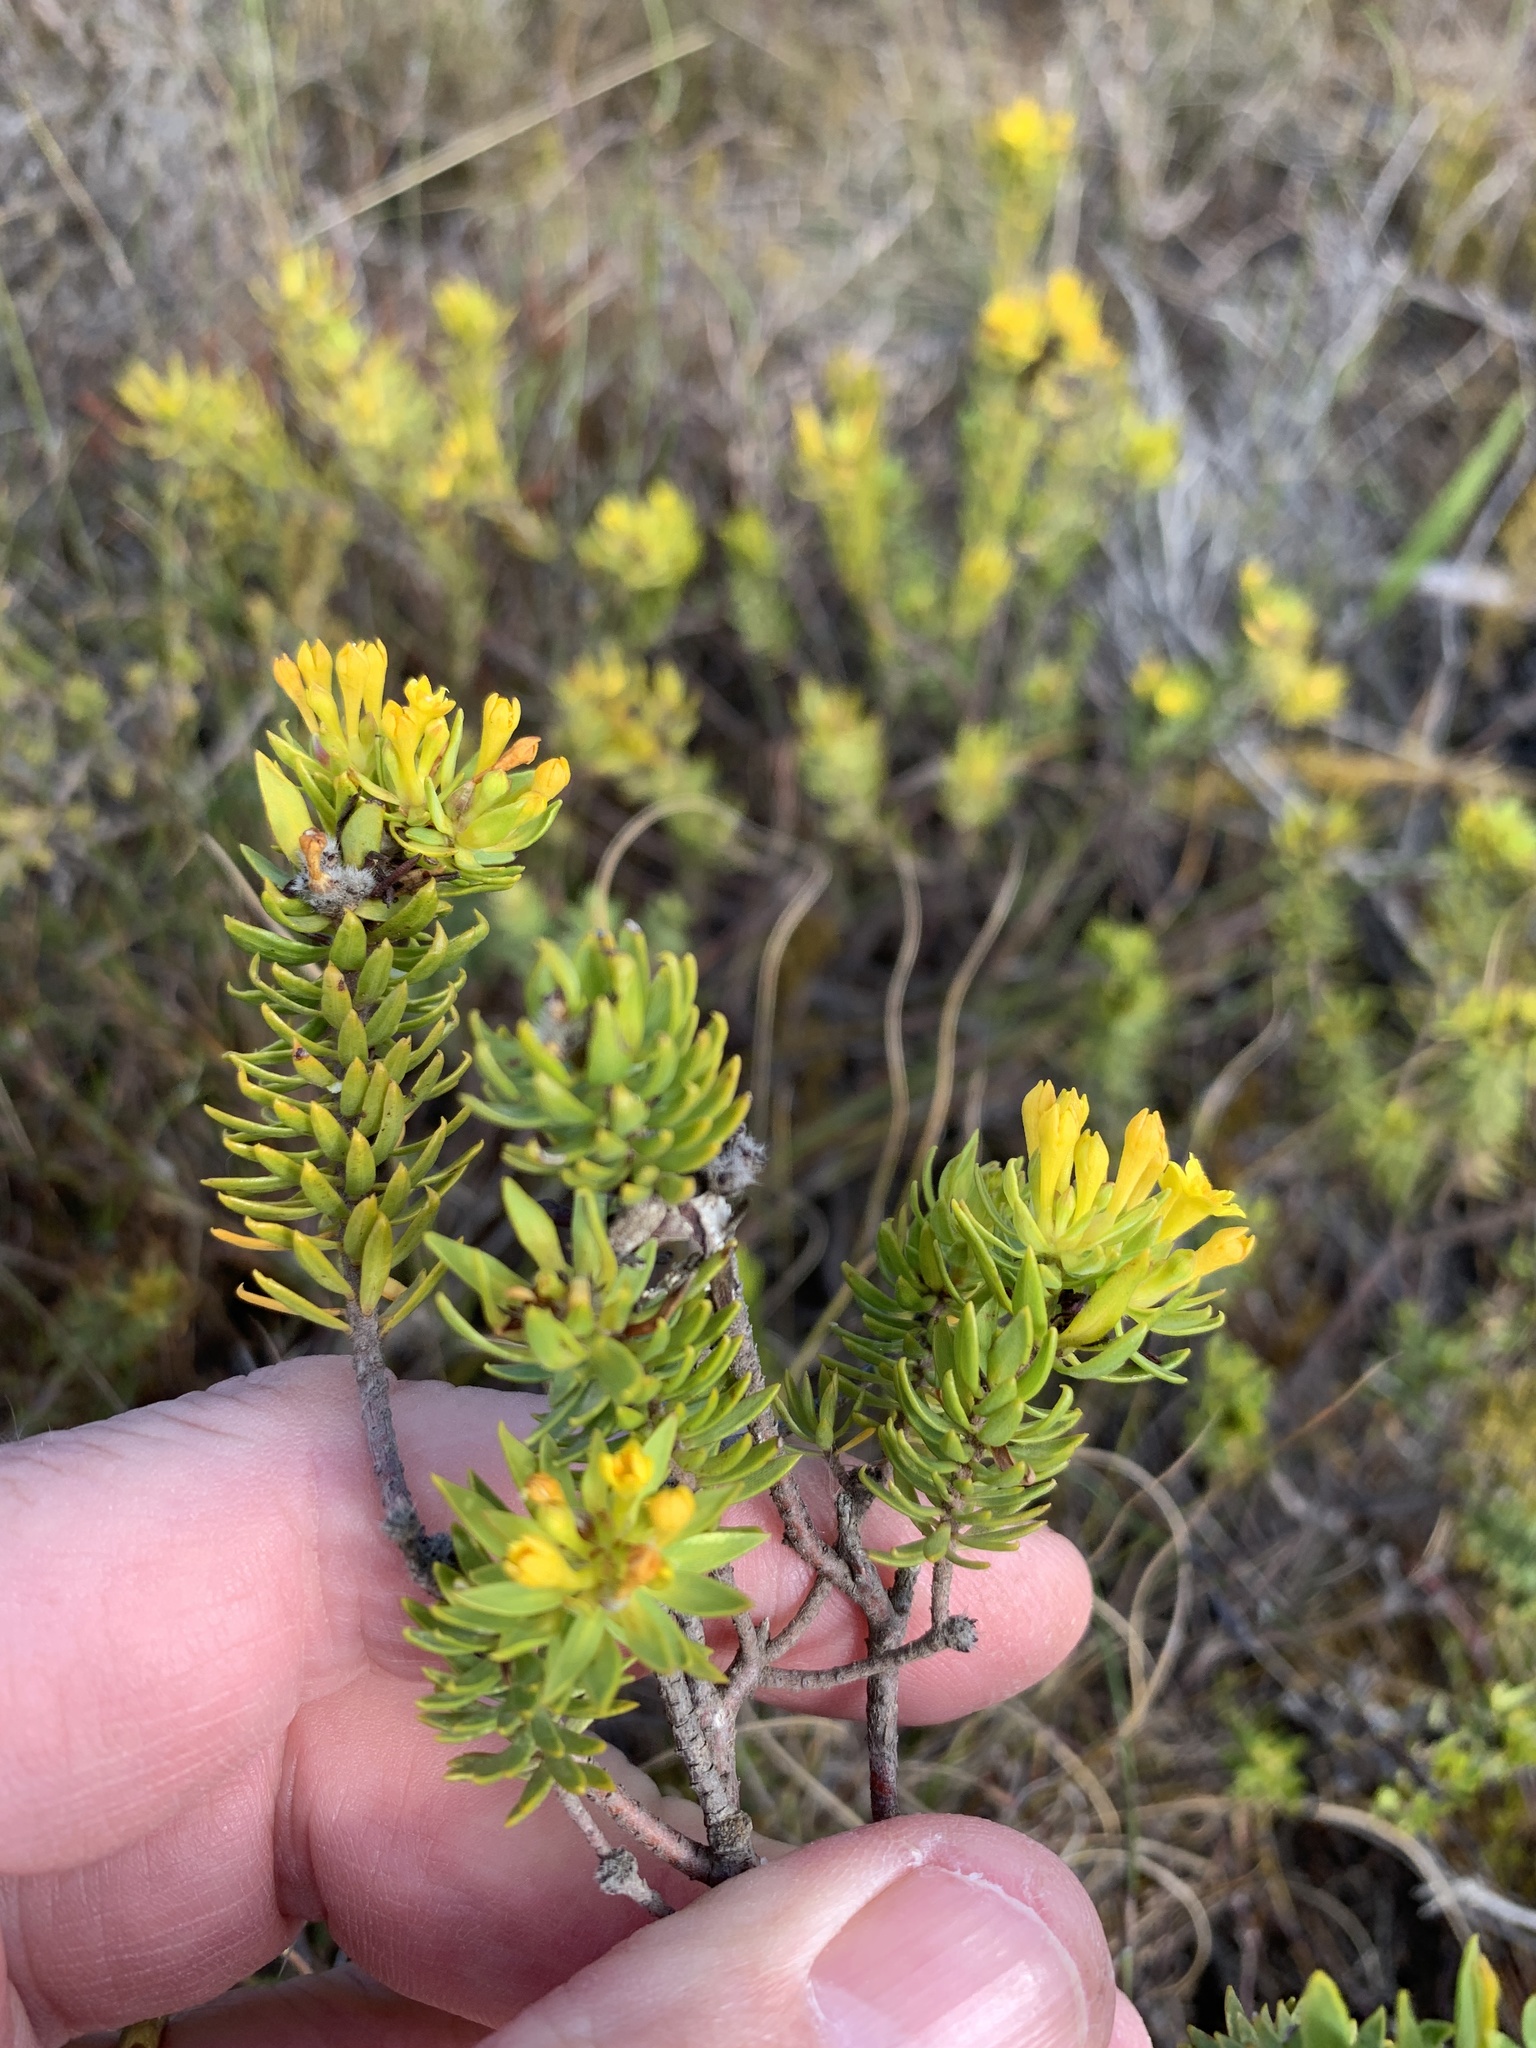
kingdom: Plantae
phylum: Tracheophyta
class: Magnoliopsida
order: Malvales
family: Thymelaeaceae
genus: Gnidia
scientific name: Gnidia juniperifolia
